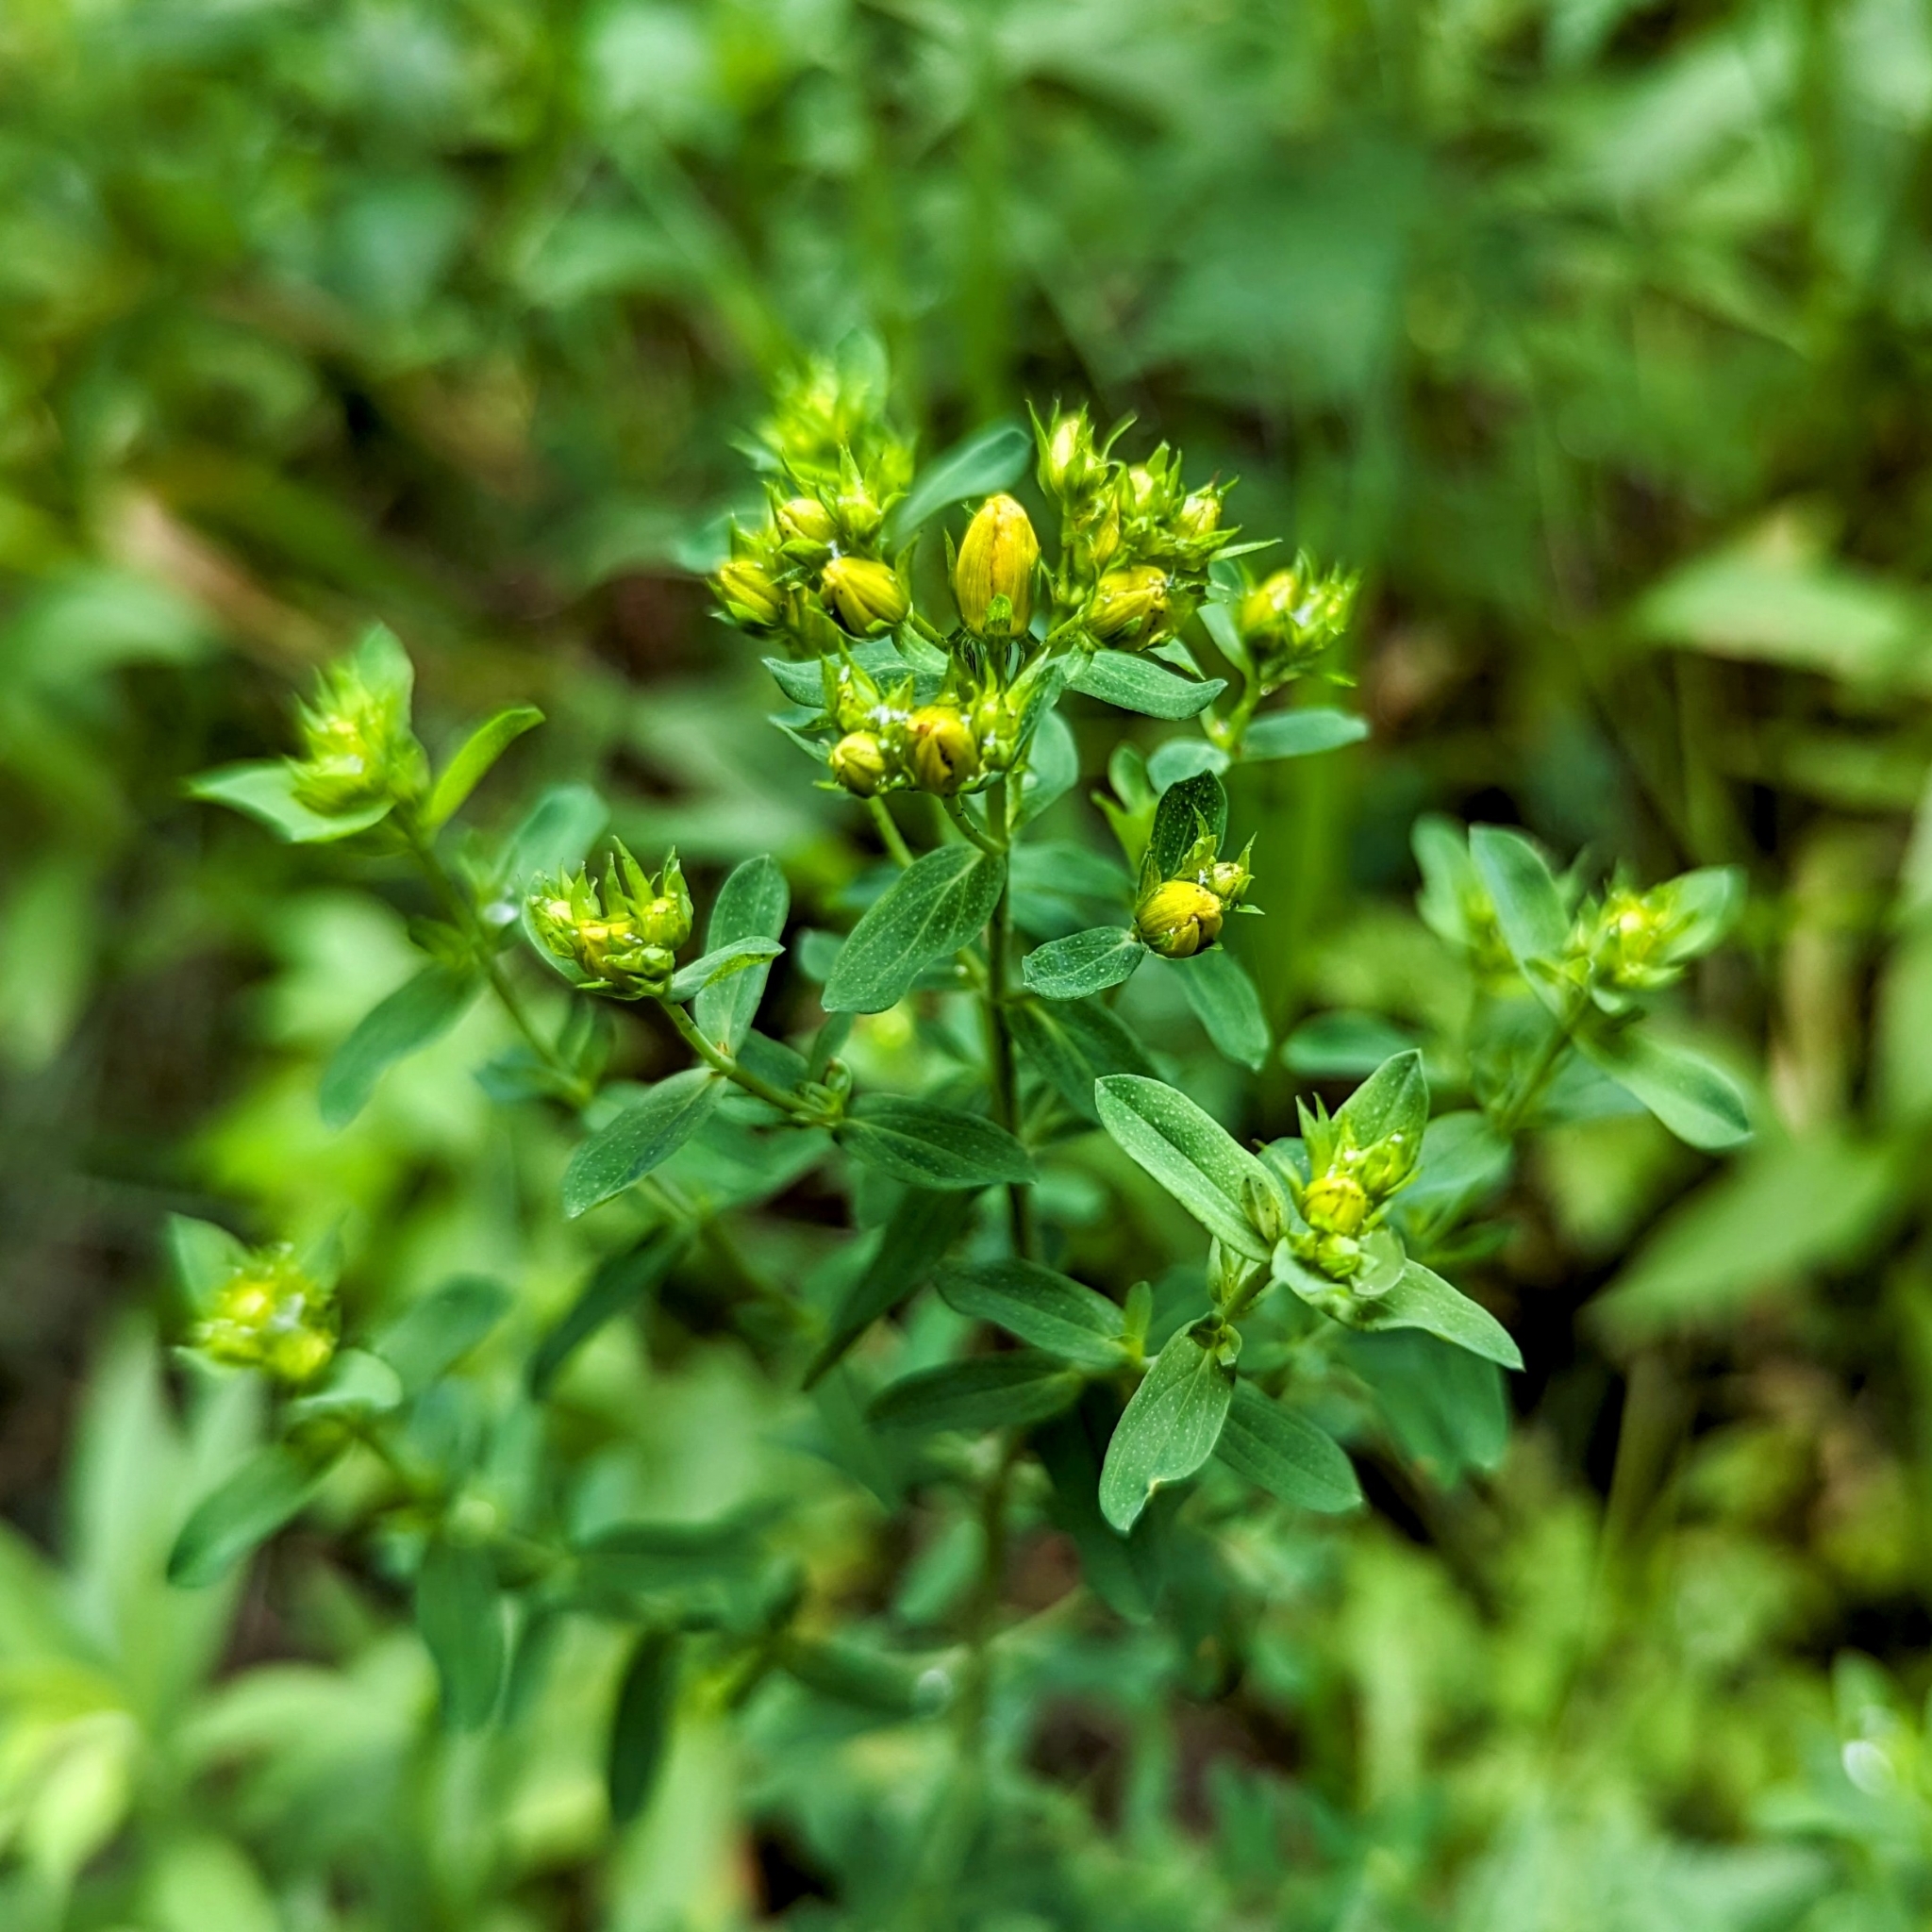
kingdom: Plantae
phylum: Tracheophyta
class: Magnoliopsida
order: Malpighiales
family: Hypericaceae
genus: Hypericum
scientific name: Hypericum punctatum
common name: Spotted st. john's-wort
